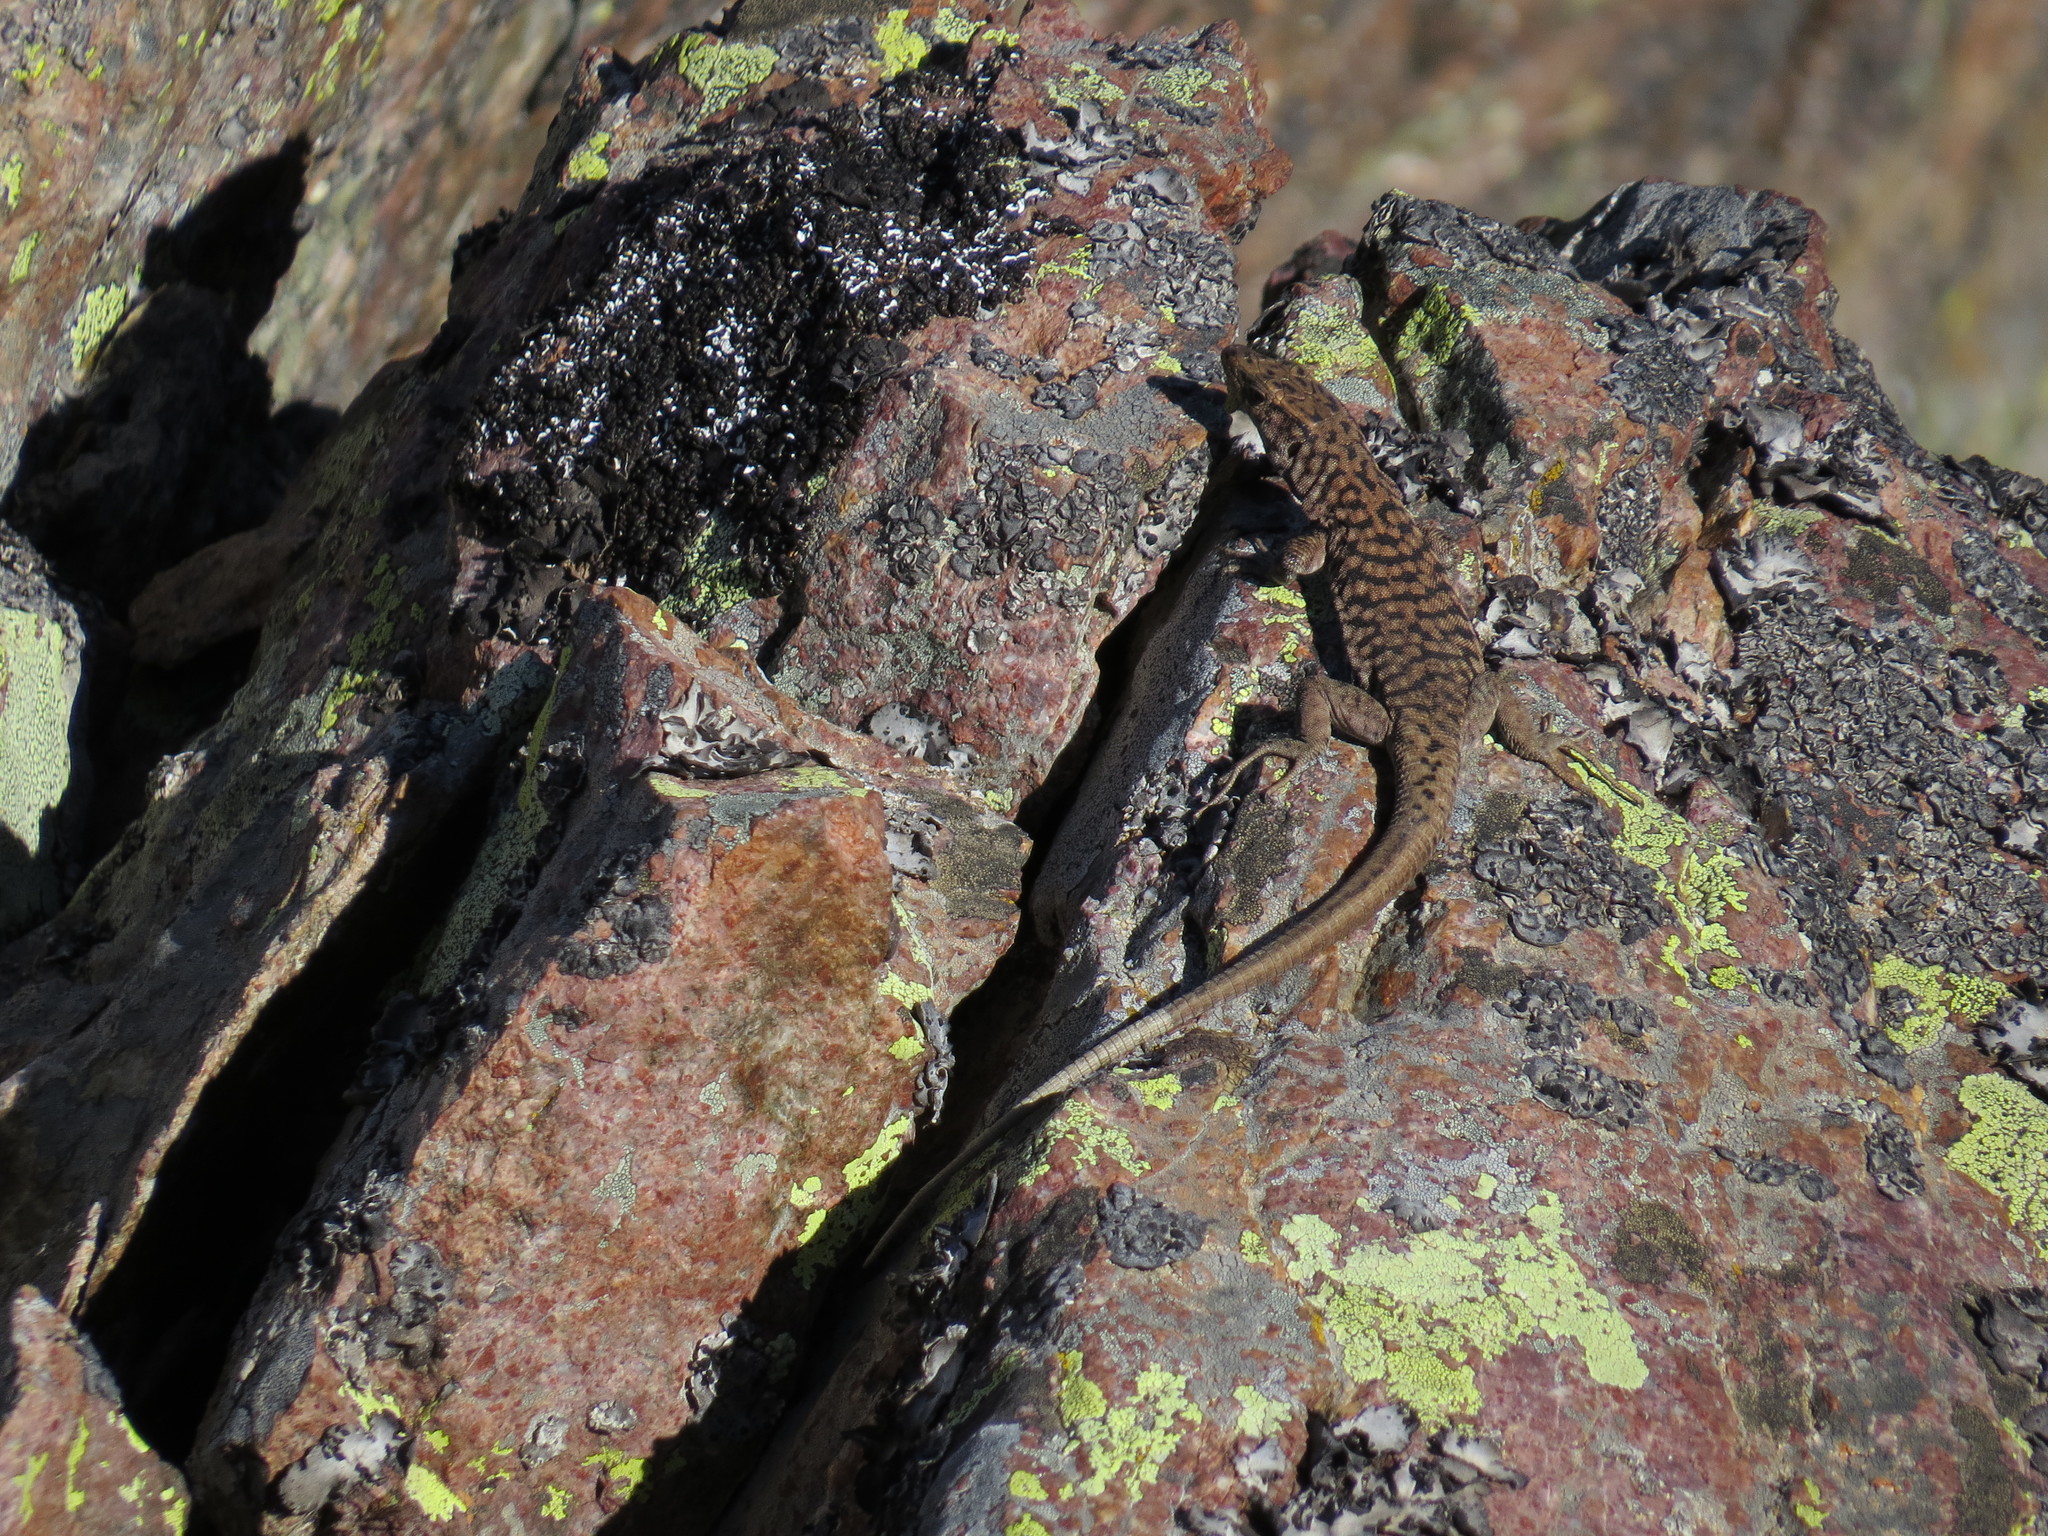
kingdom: Animalia
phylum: Chordata
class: Squamata
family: Lacertidae
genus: Archaeolacerta
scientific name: Archaeolacerta bedriagae
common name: Bedriaga's rock lizard
